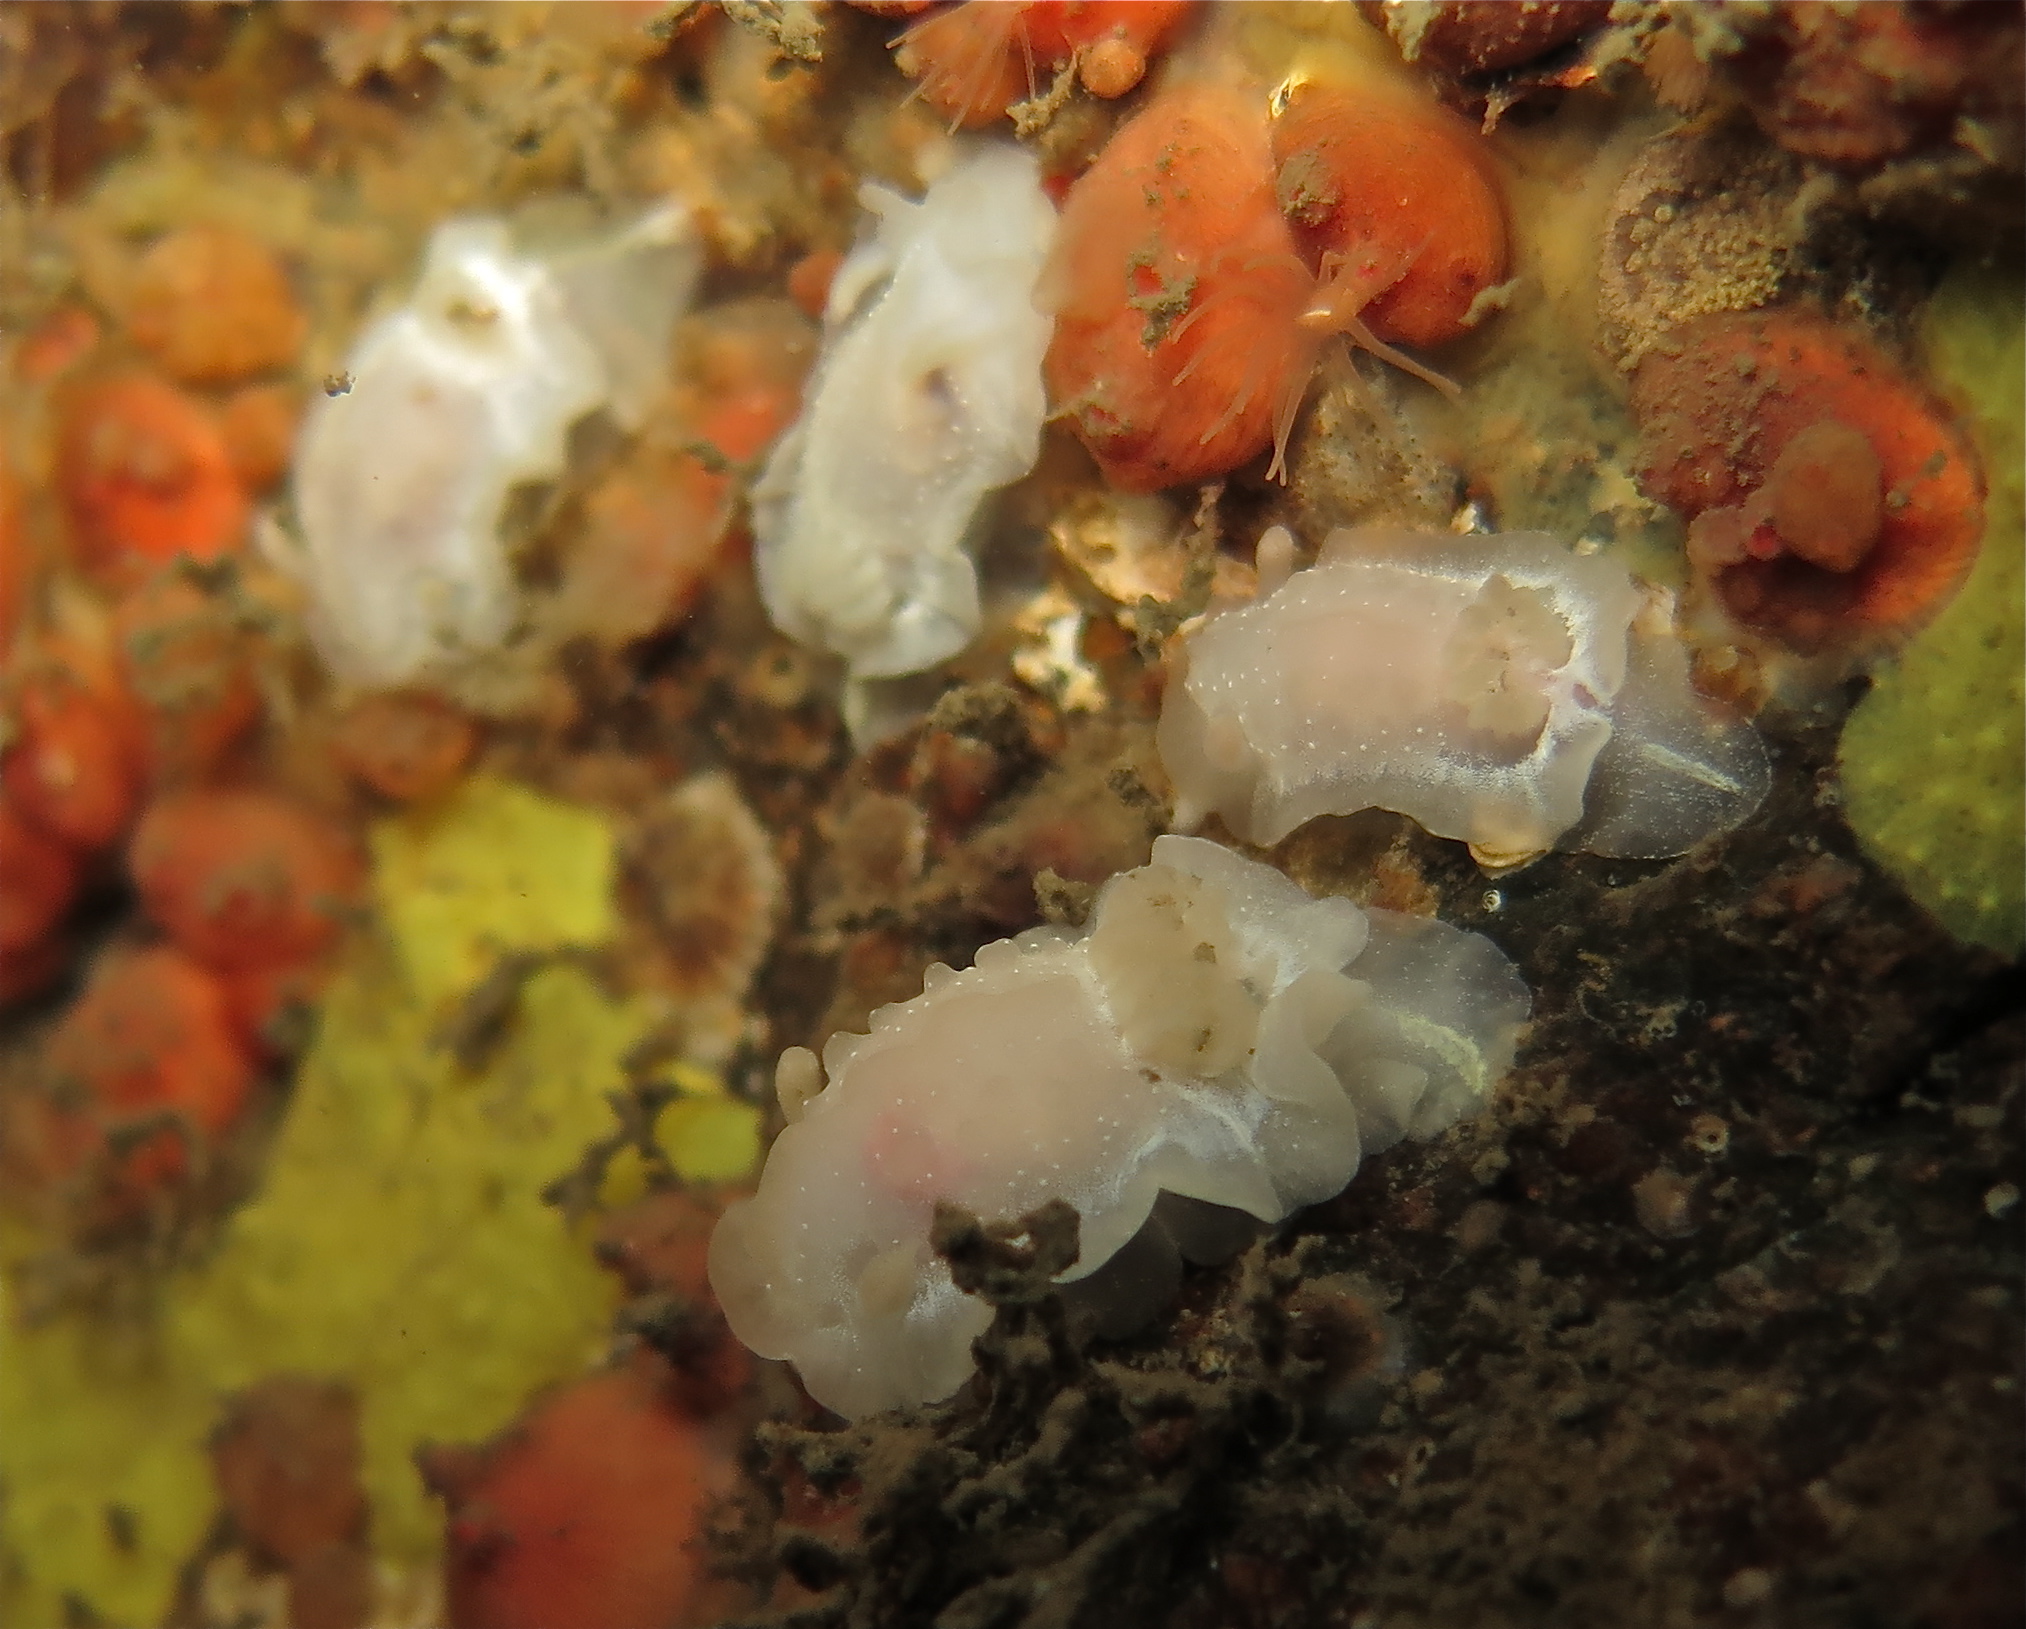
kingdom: Animalia
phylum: Mollusca
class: Gastropoda
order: Nudibranchia
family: Goniodorididae
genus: Okenia
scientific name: Okenia
